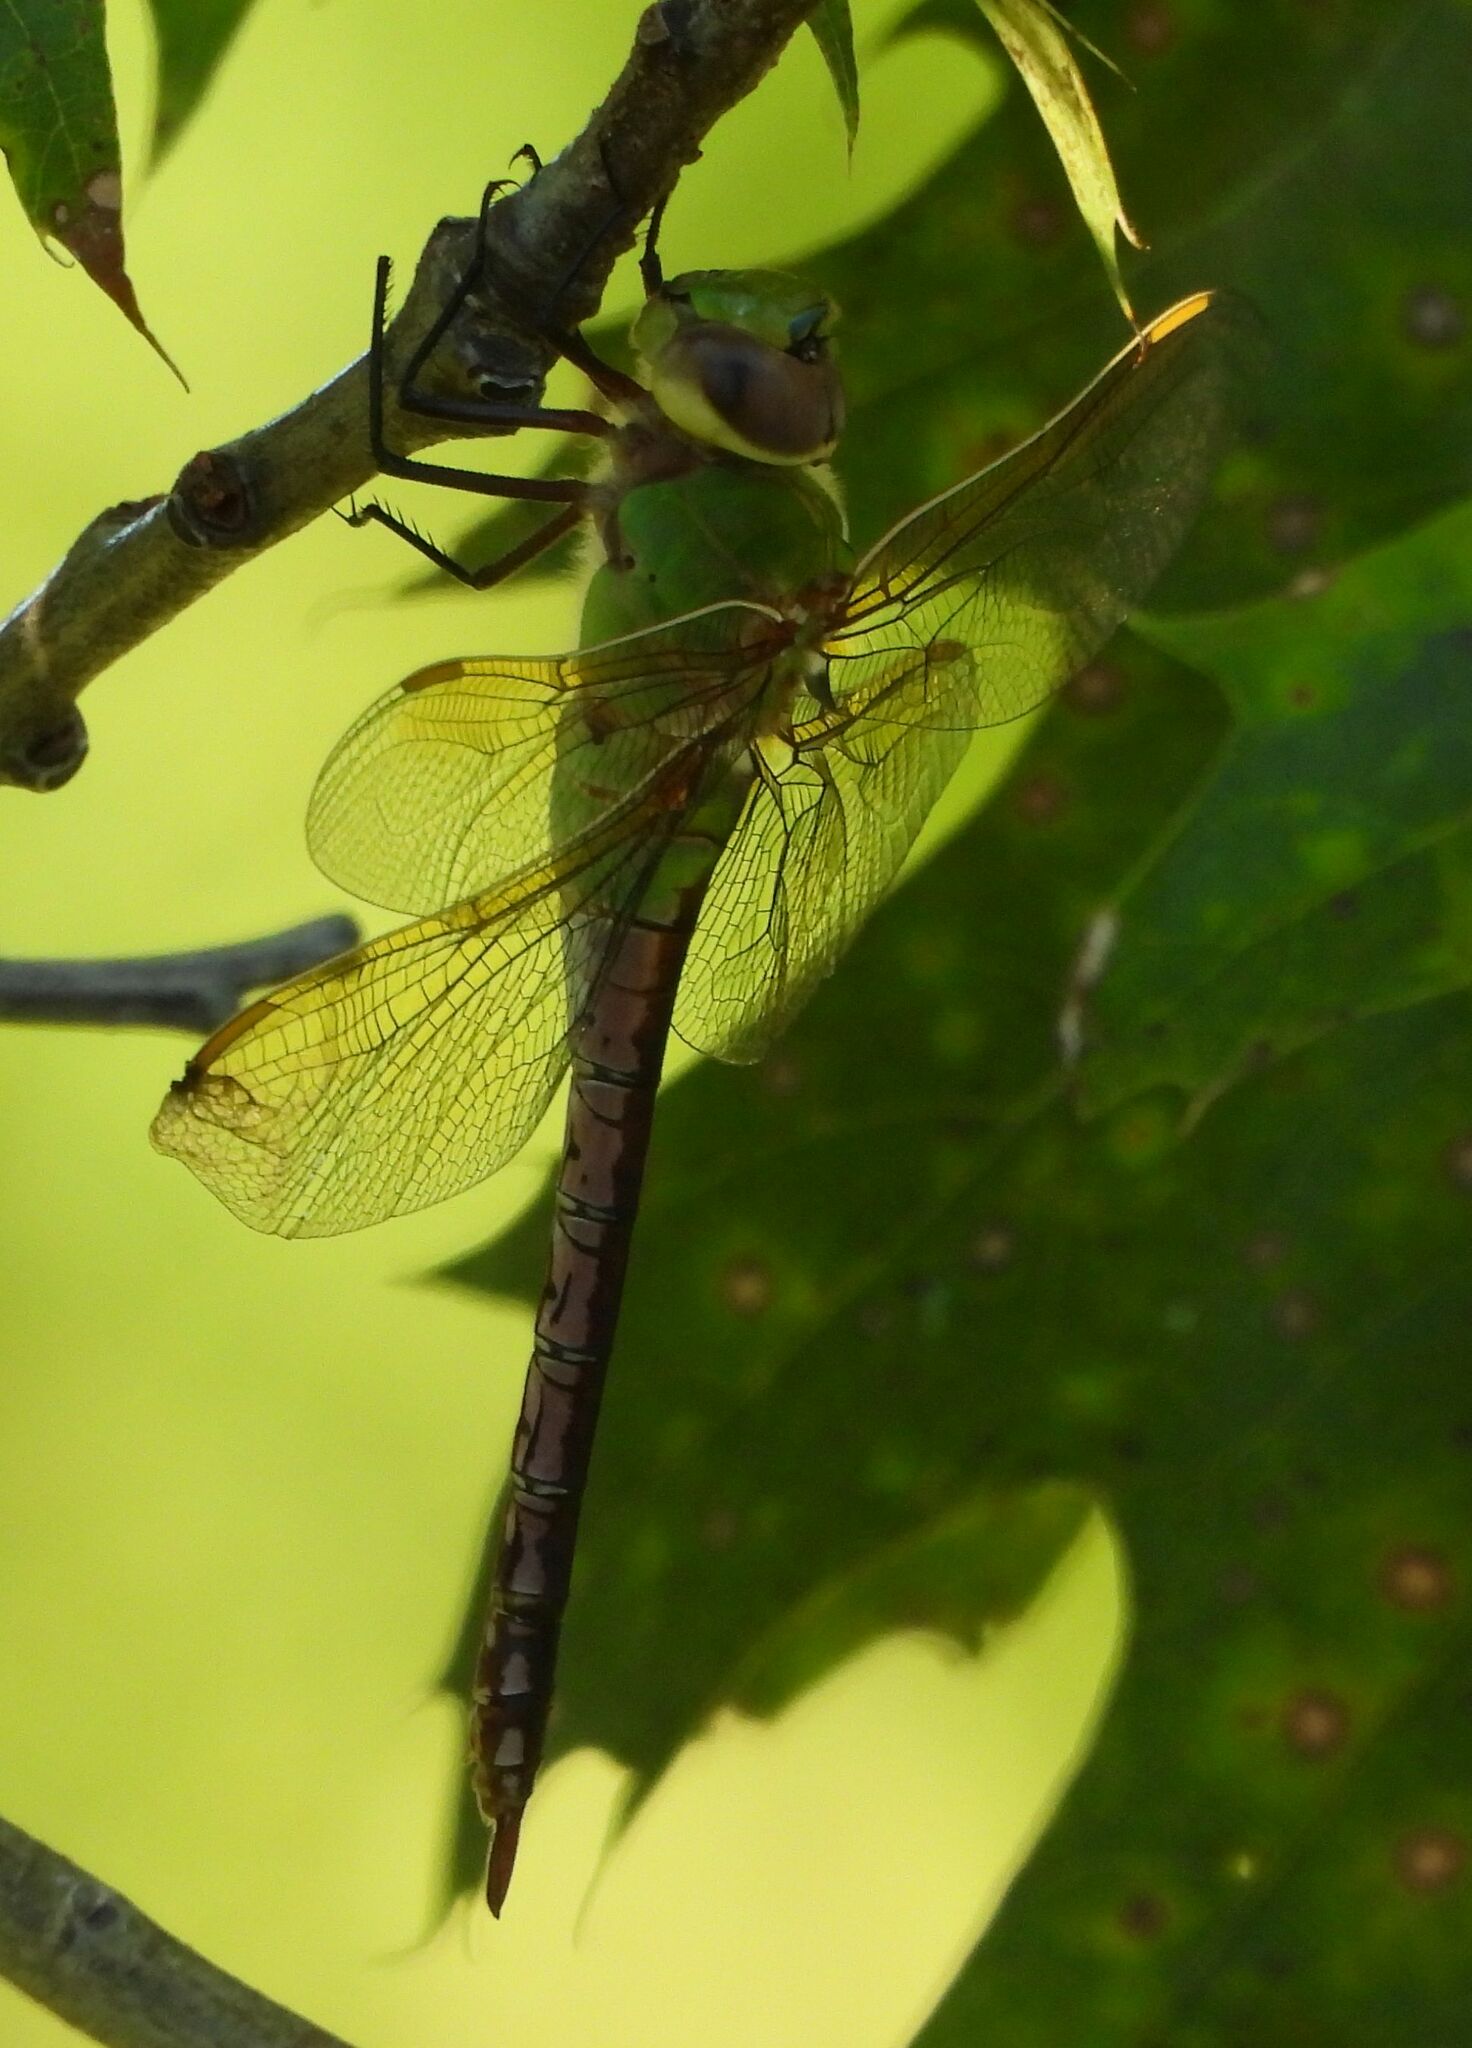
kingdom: Animalia
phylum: Arthropoda
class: Insecta
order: Odonata
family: Aeshnidae
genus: Anax
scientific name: Anax junius
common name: Common green darner
